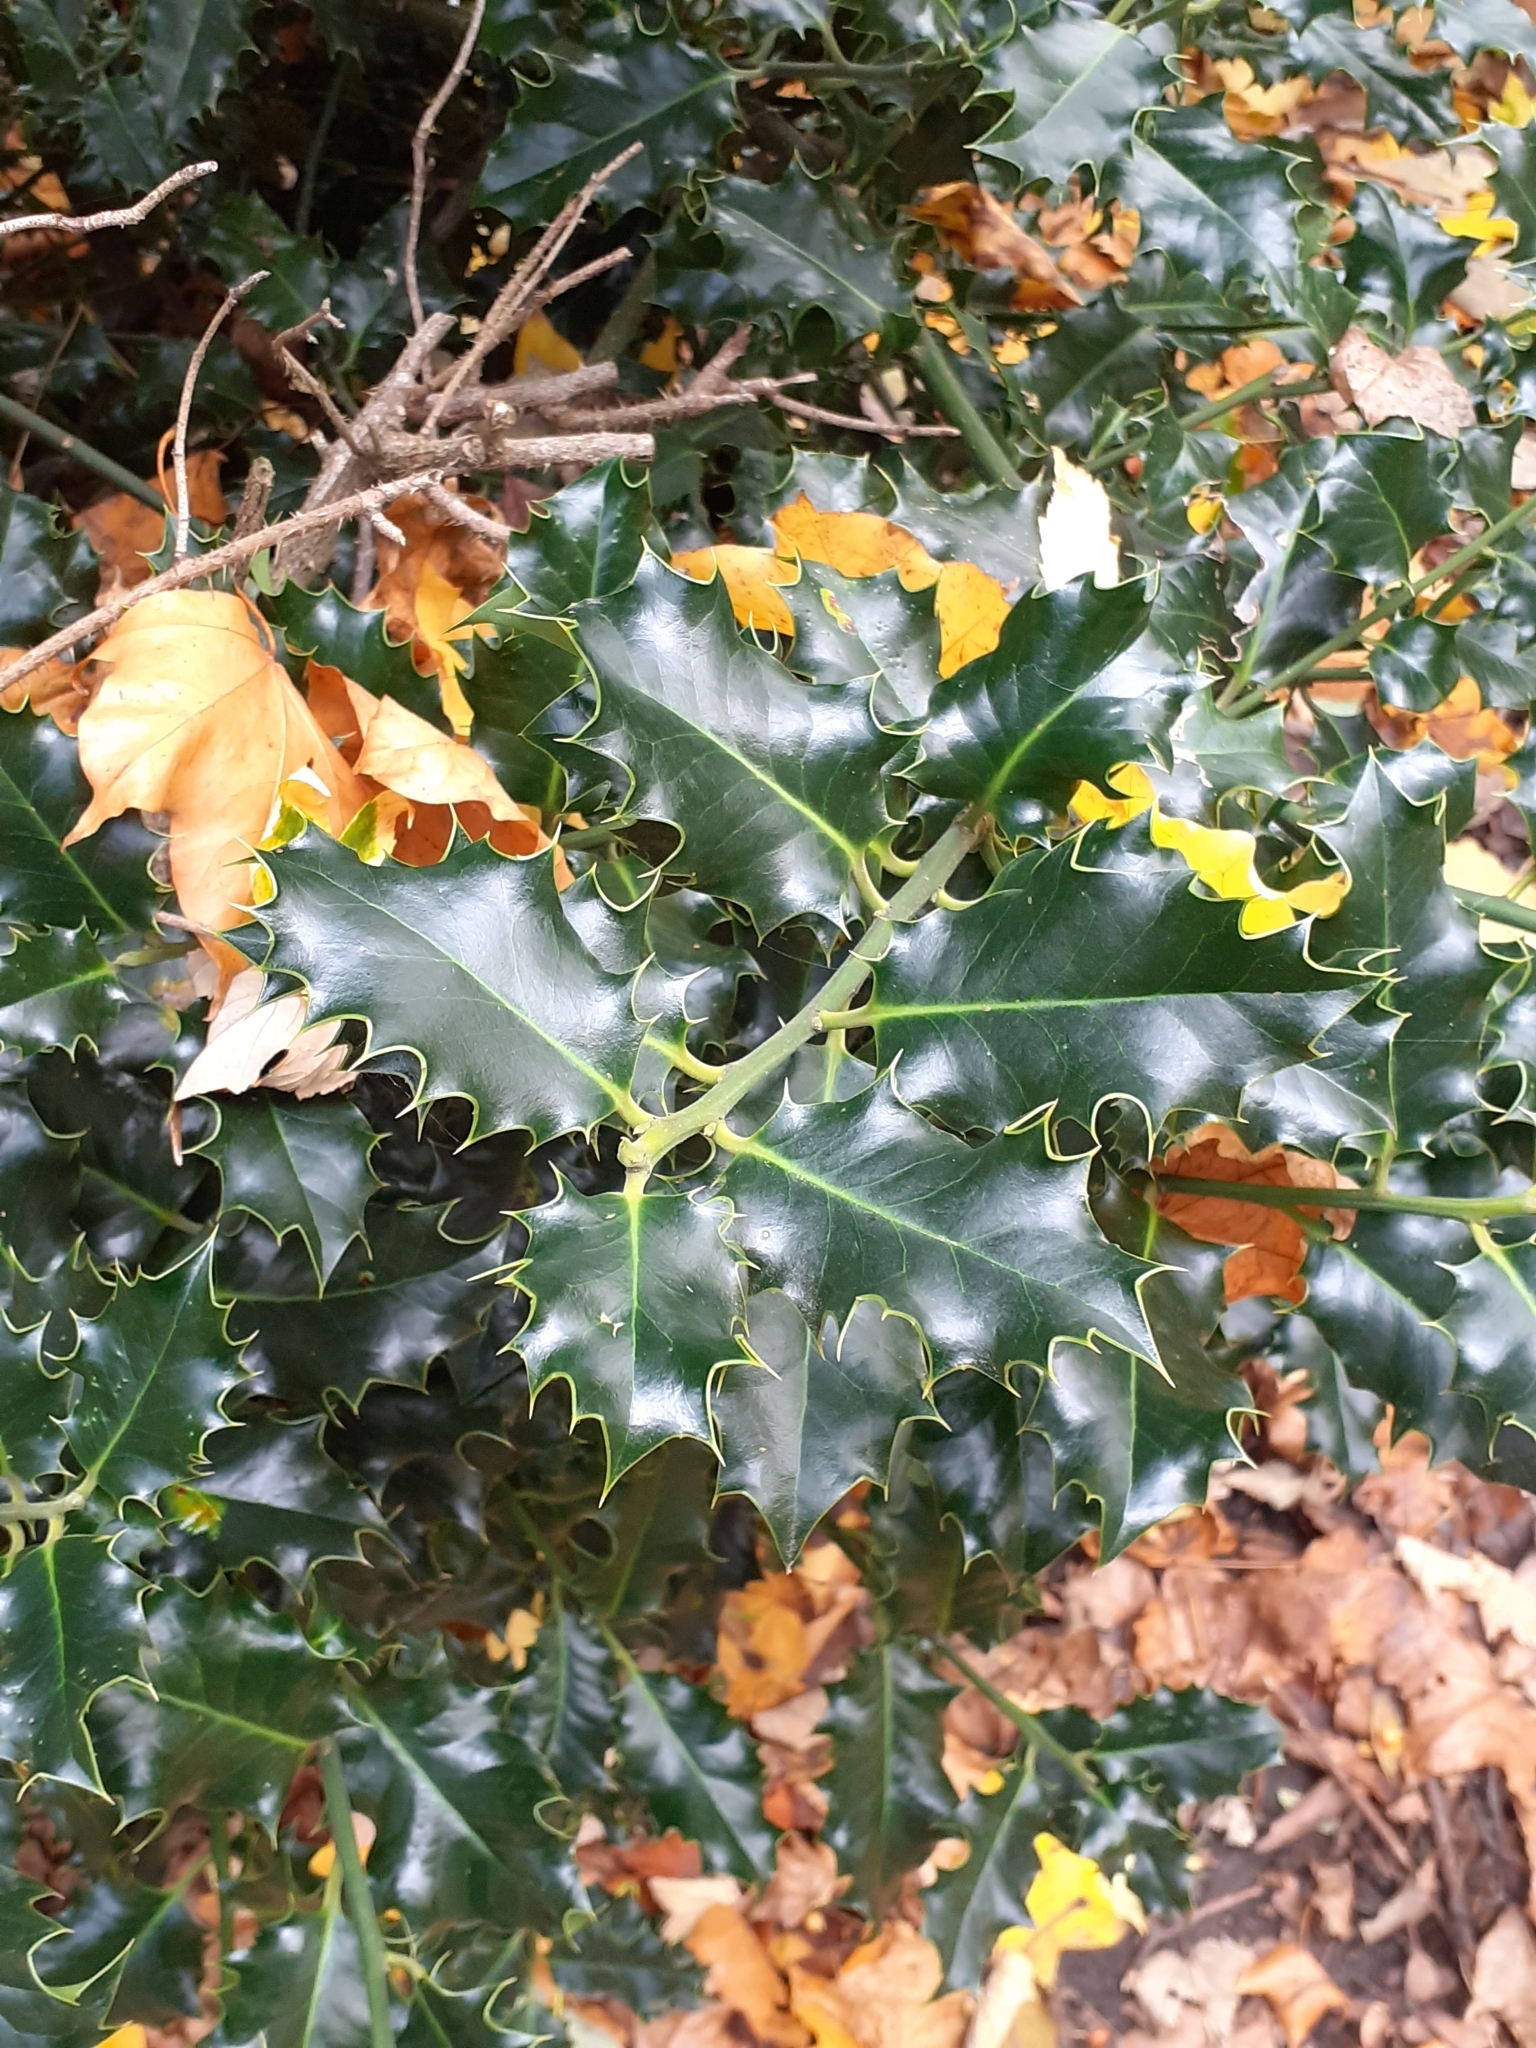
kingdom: Plantae
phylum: Tracheophyta
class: Magnoliopsida
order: Aquifoliales
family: Aquifoliaceae
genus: Ilex
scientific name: Ilex aquifolium
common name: English holly
